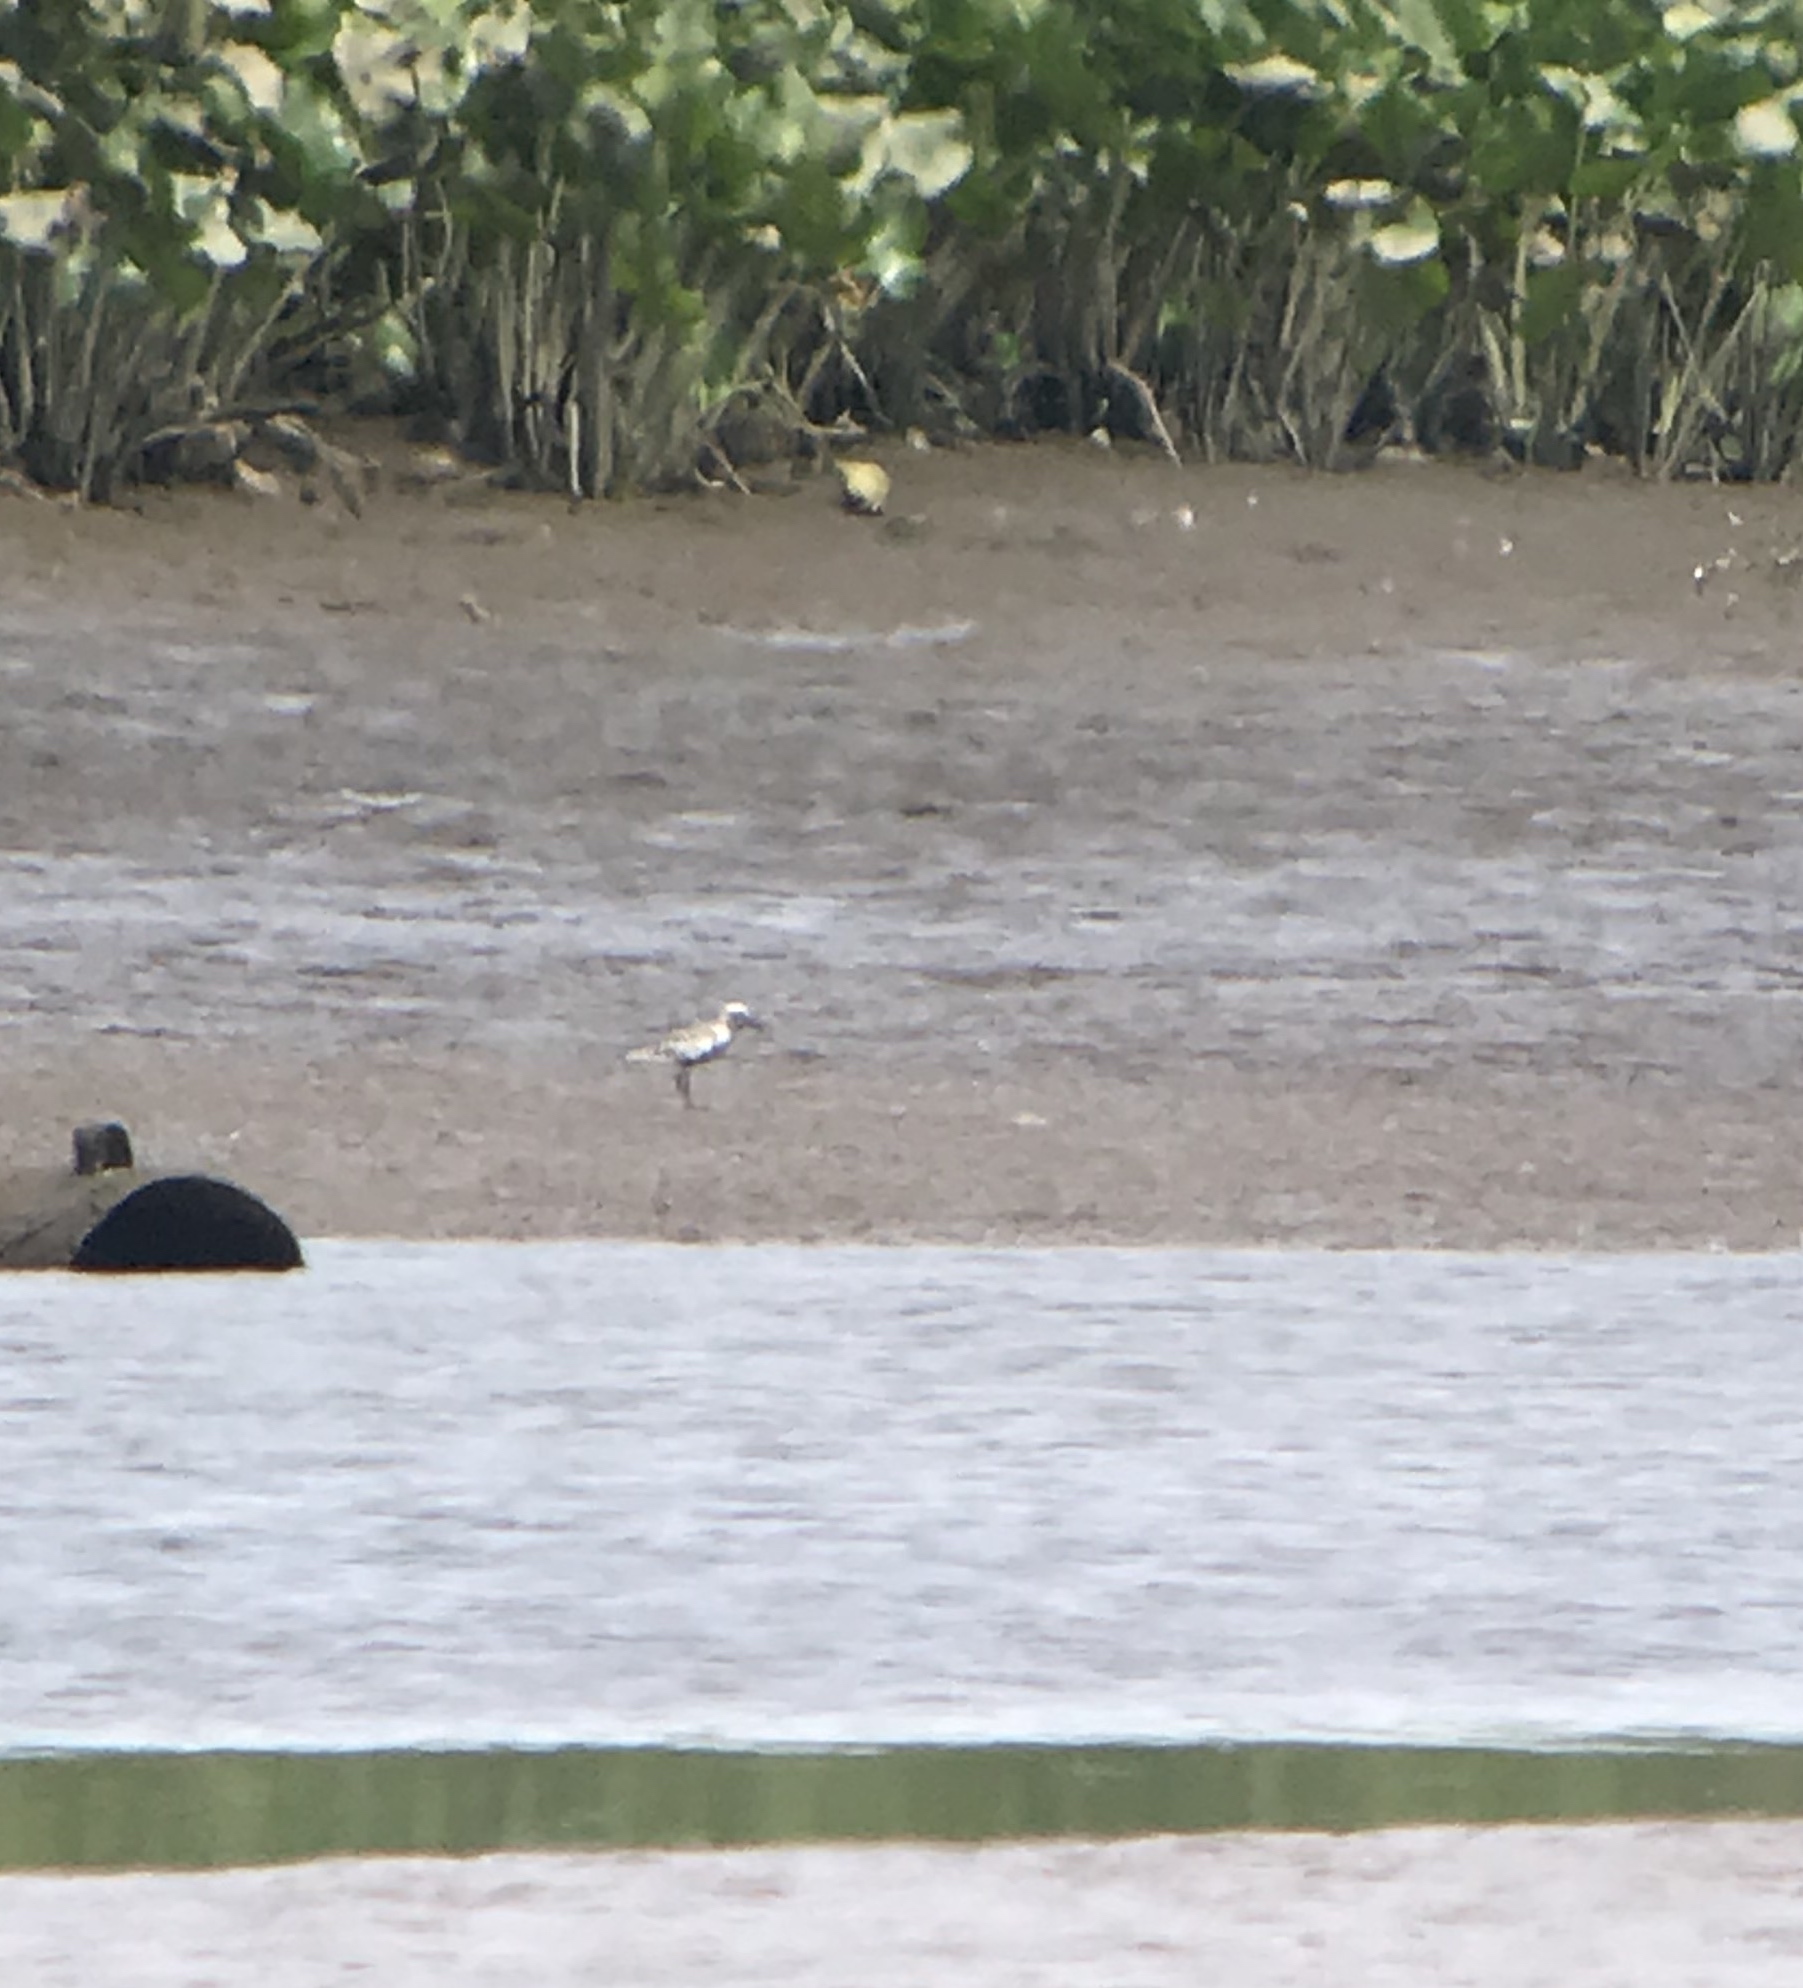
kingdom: Animalia
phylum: Chordata
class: Aves
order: Charadriiformes
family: Charadriidae
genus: Pluvialis
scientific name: Pluvialis squatarola
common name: Grey plover
